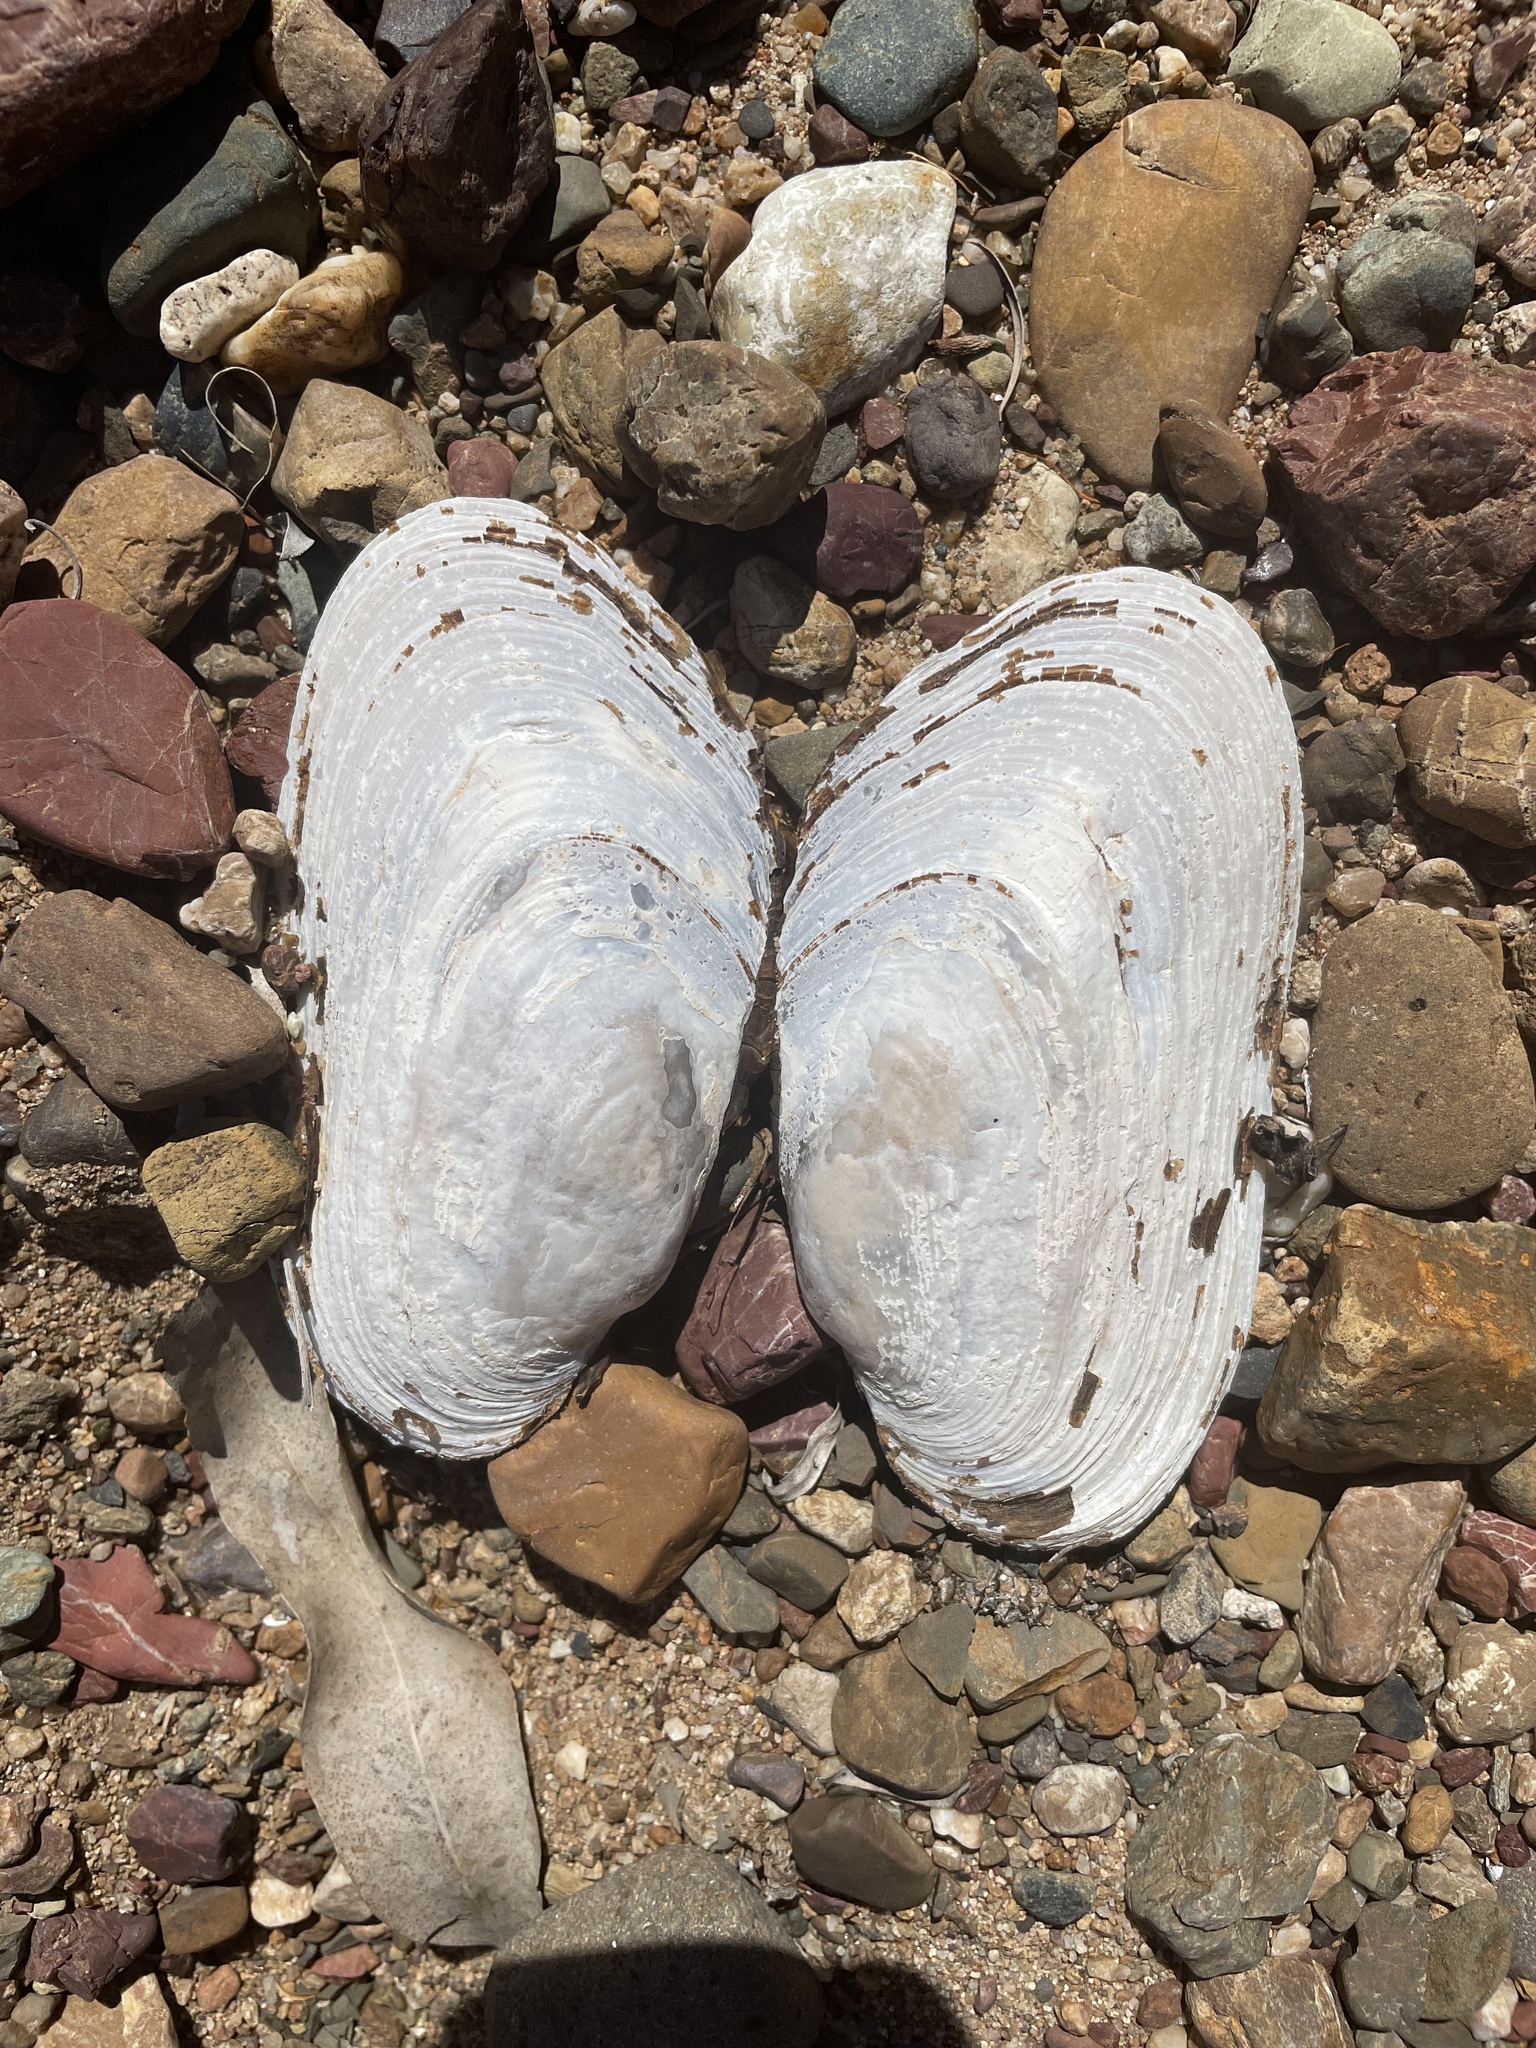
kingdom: Animalia
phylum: Mollusca
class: Bivalvia
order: Unionida
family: Hyriidae
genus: Alathyria
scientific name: Alathyria pertexta
